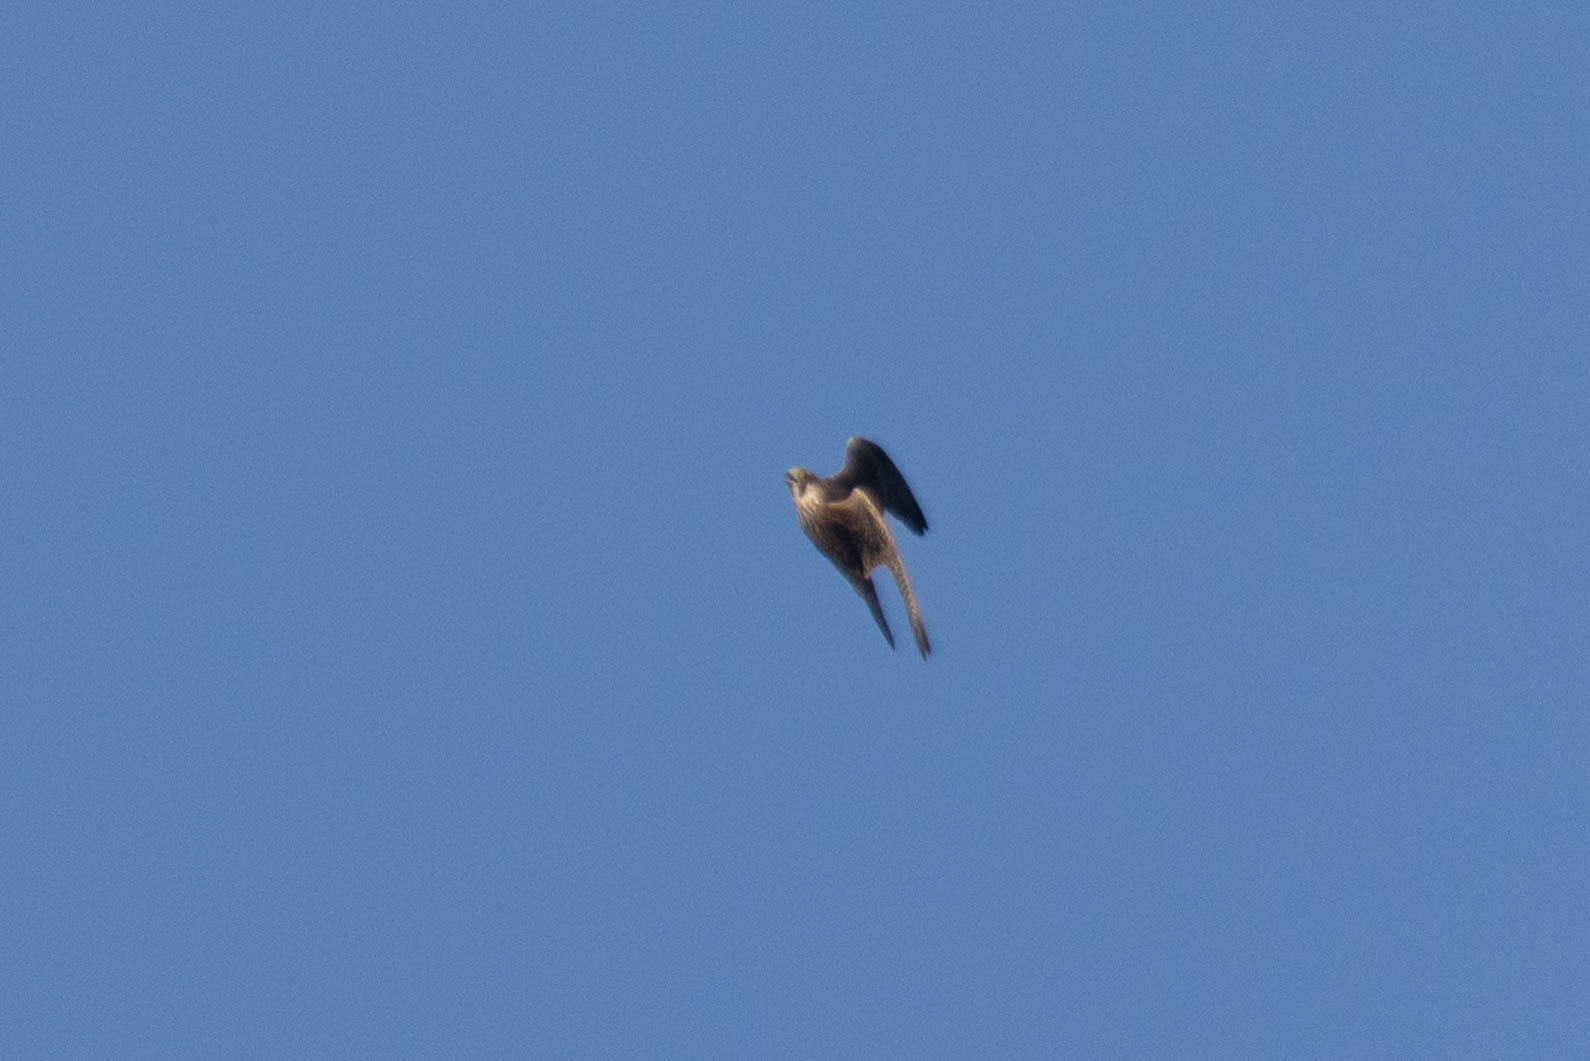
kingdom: Animalia
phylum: Chordata
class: Aves
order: Falconiformes
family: Falconidae
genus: Falco
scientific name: Falco peregrinus
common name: Peregrine falcon
